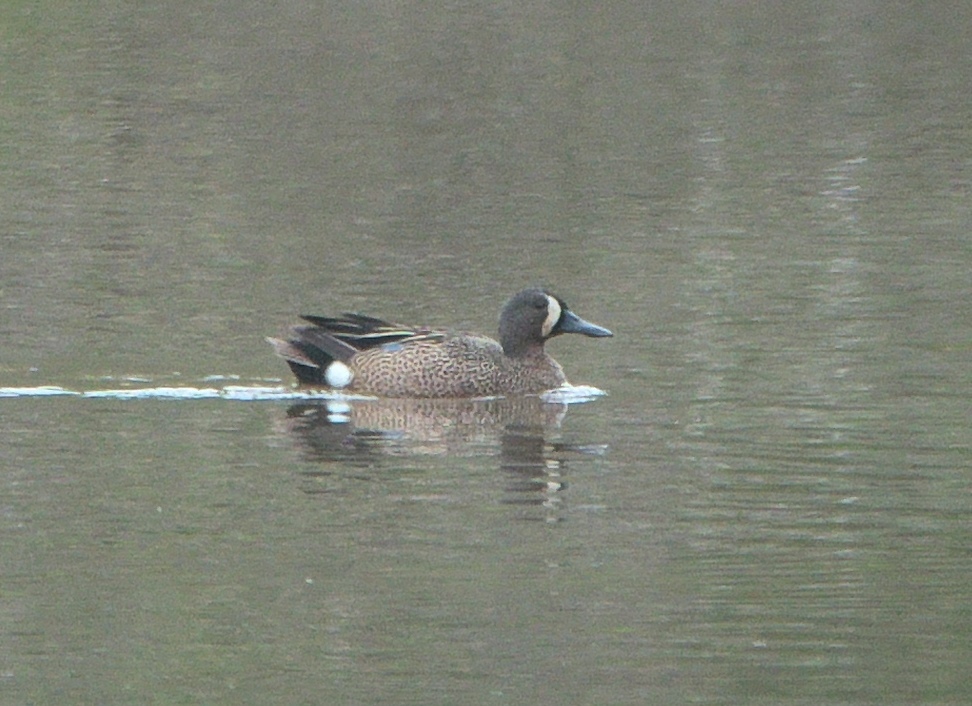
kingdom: Animalia
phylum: Chordata
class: Aves
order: Anseriformes
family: Anatidae
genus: Spatula
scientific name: Spatula discors
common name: Blue-winged teal
